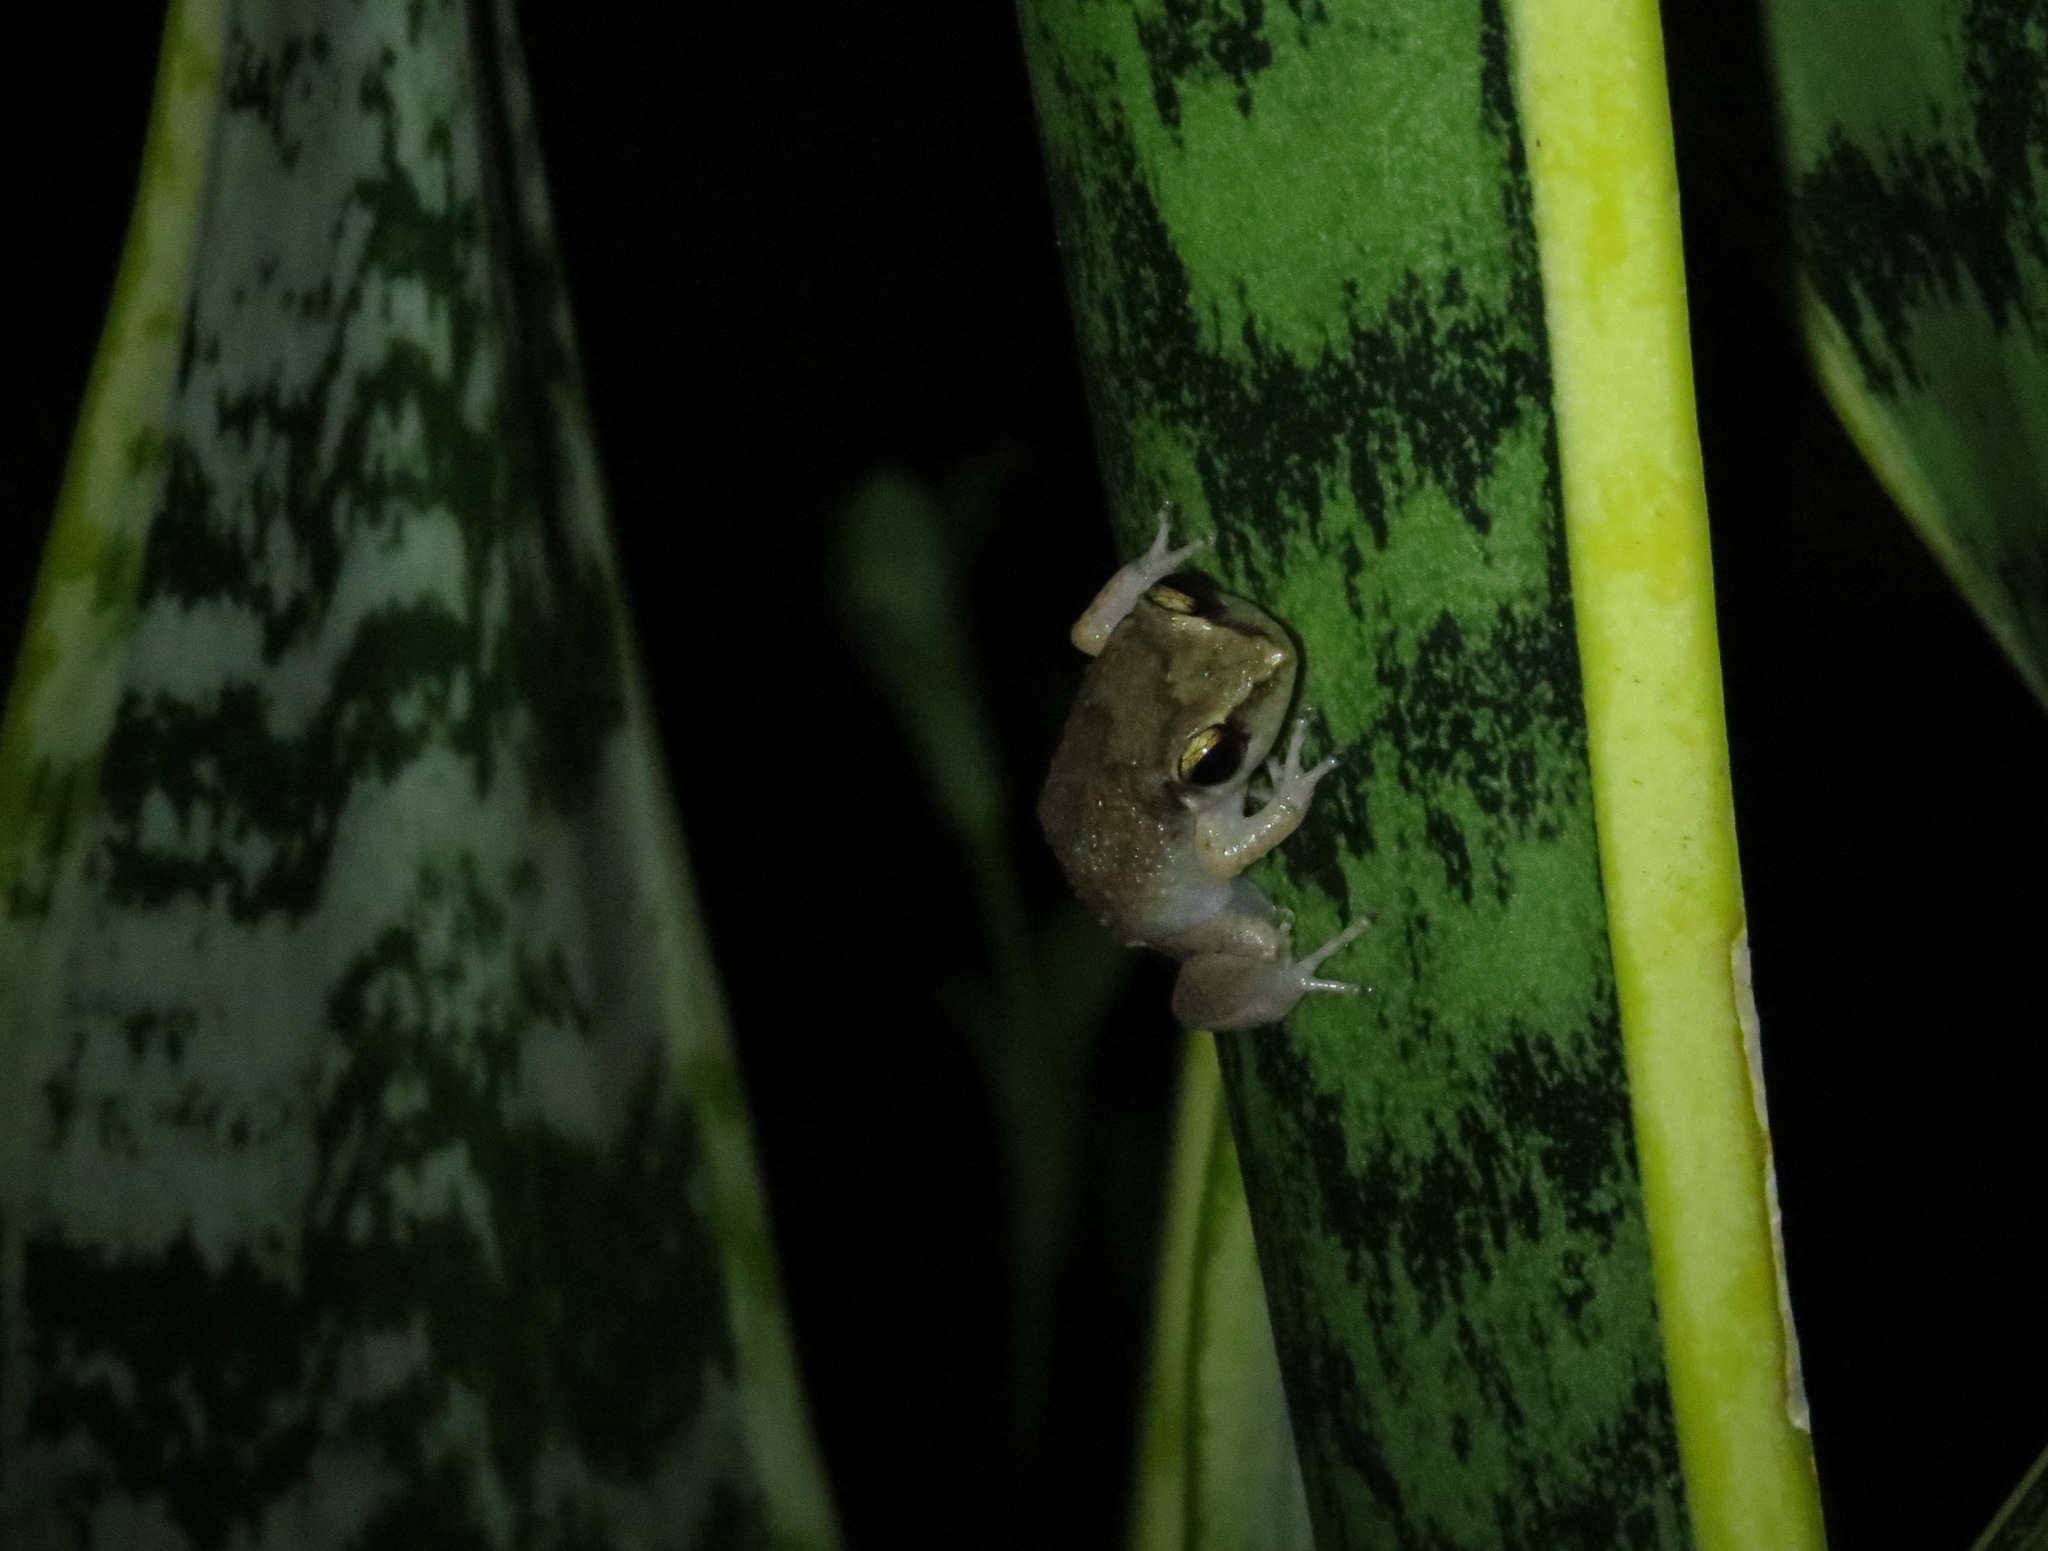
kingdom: Animalia
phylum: Chordata
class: Amphibia
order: Anura
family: Eleutherodactylidae
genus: Eleutherodactylus
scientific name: Eleutherodactylus johnstonei
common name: Johnstone's robber frog
